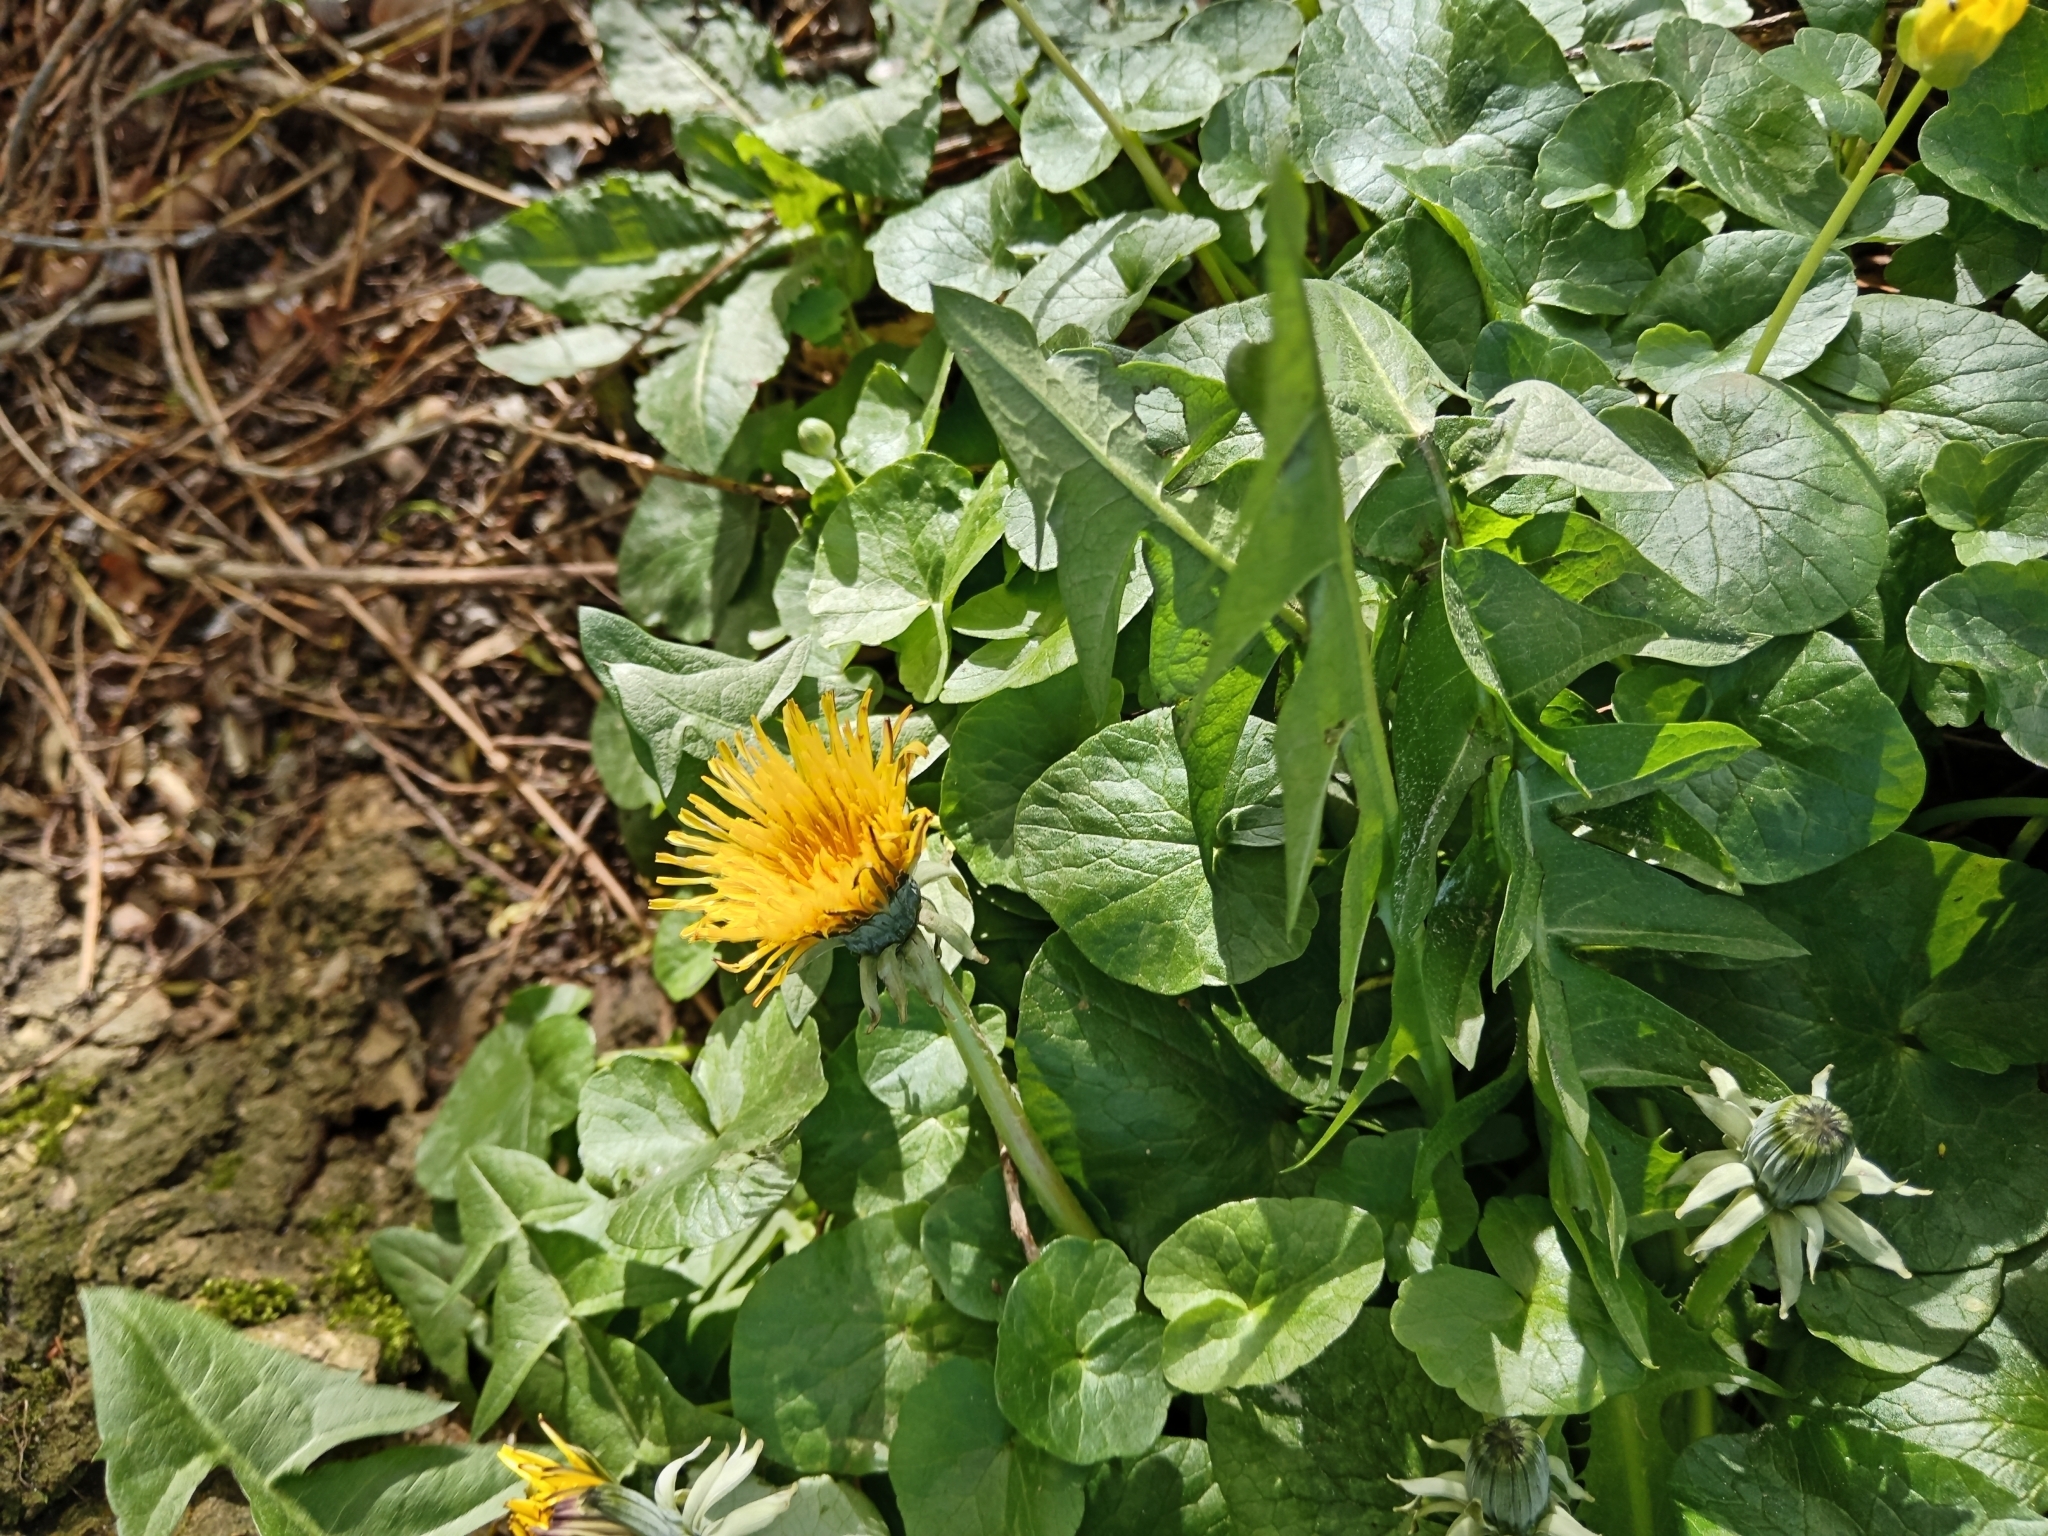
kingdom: Plantae
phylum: Tracheophyta
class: Magnoliopsida
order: Asterales
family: Asteraceae
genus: Taraxacum
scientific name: Taraxacum officinale
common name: Common dandelion
